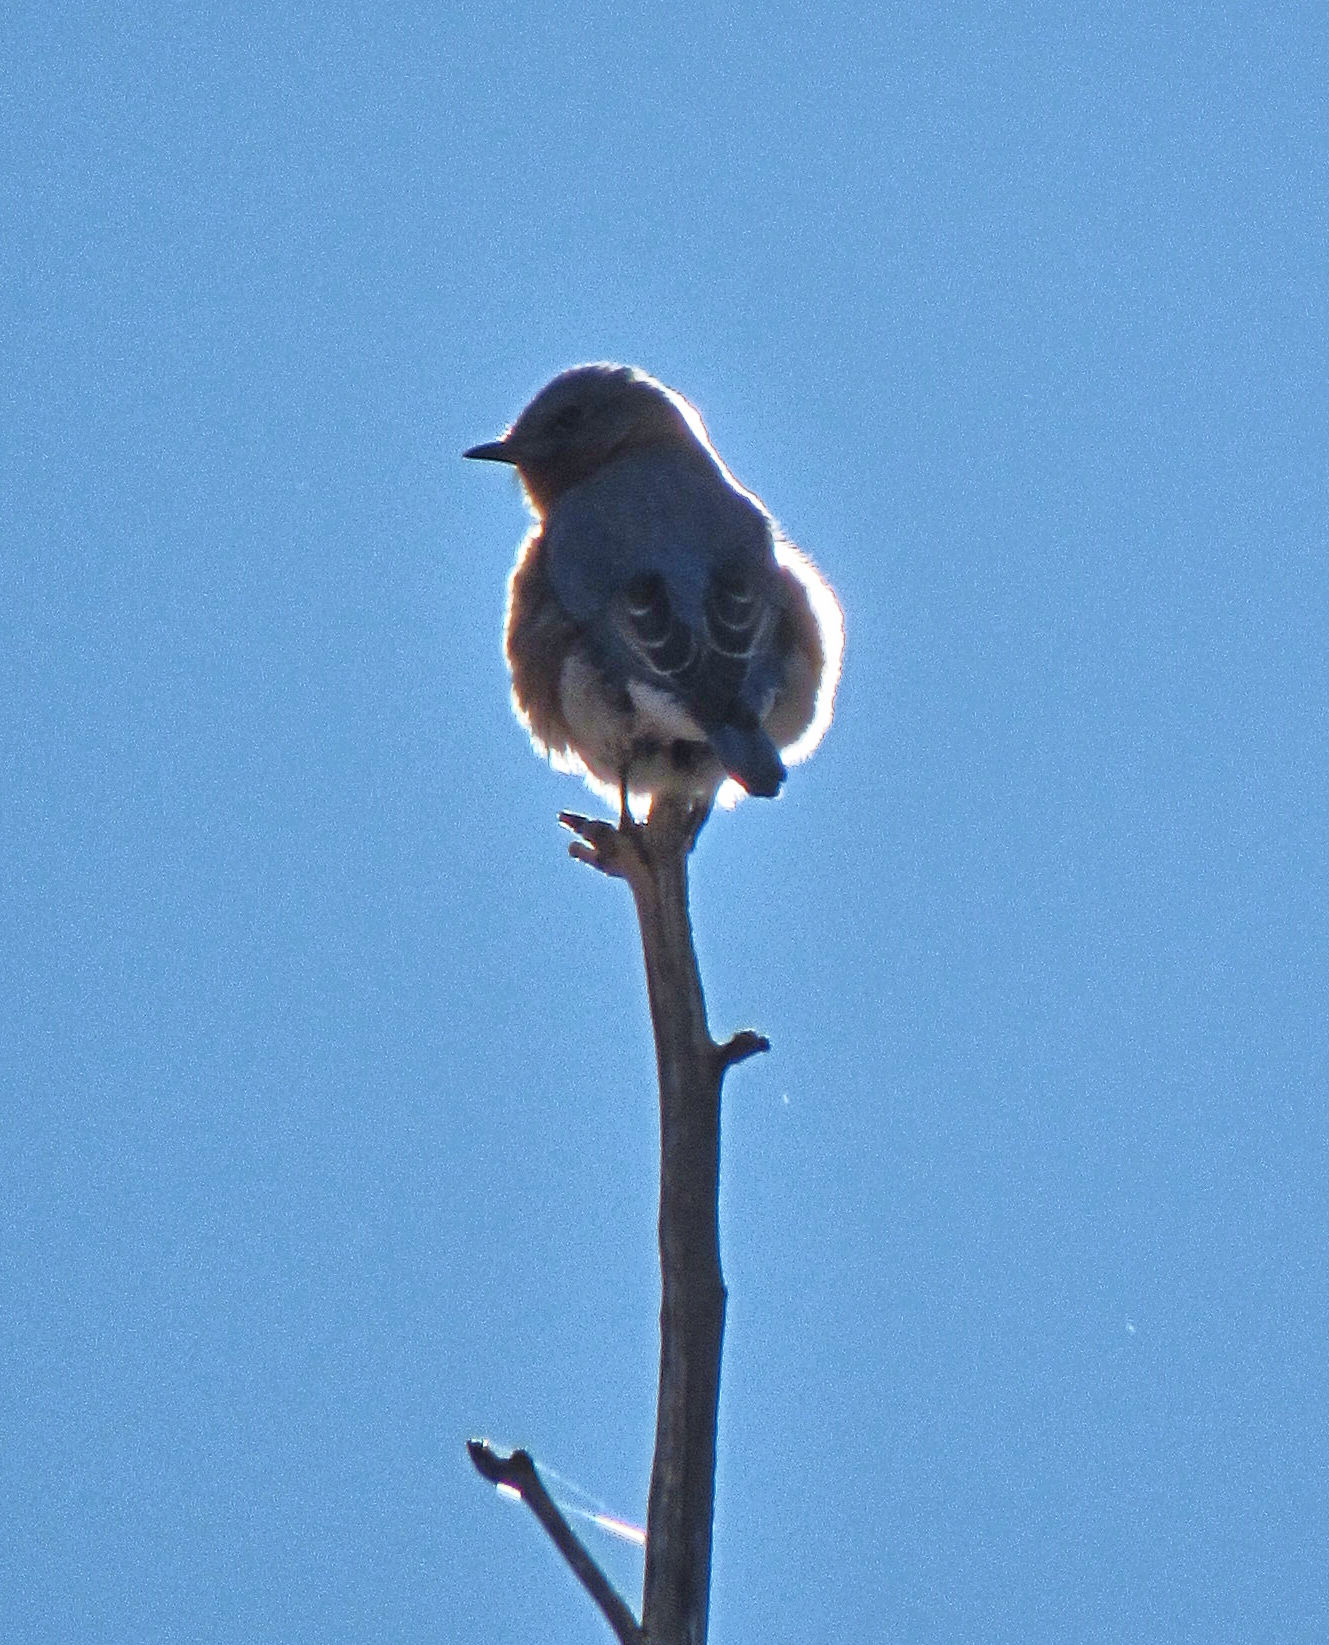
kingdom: Animalia
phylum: Chordata
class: Aves
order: Passeriformes
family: Turdidae
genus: Sialia
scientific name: Sialia sialis
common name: Eastern bluebird
